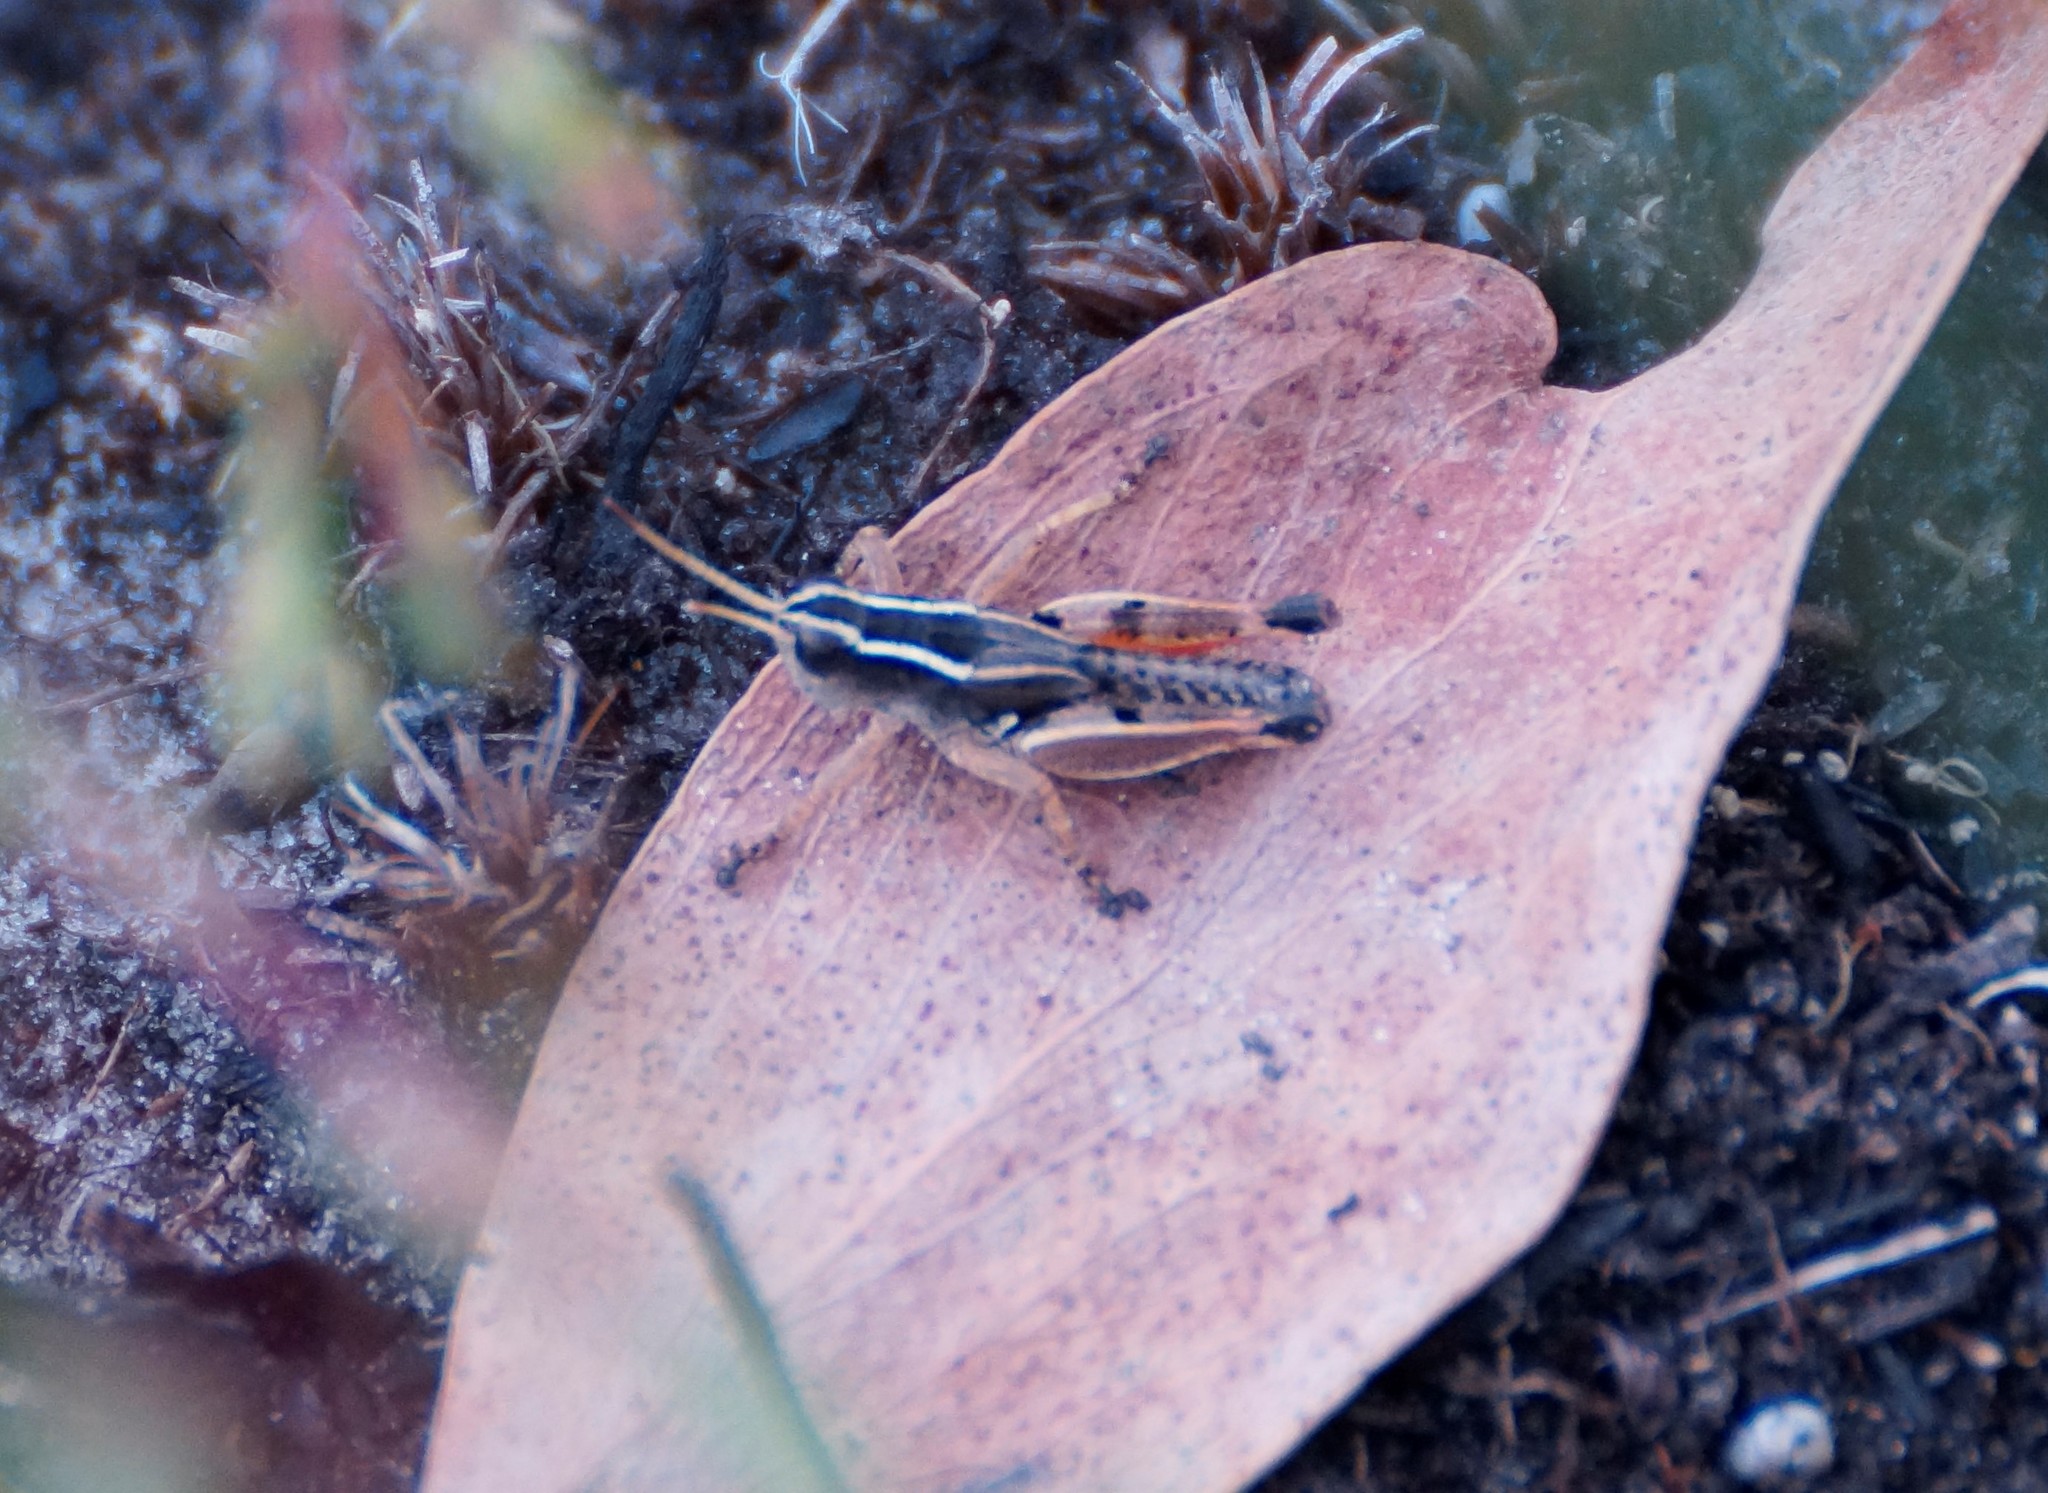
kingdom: Animalia
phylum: Arthropoda
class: Insecta
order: Orthoptera
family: Acrididae
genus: Phaulacridium
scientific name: Phaulacridium vittatum
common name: Wingless grasshopper
